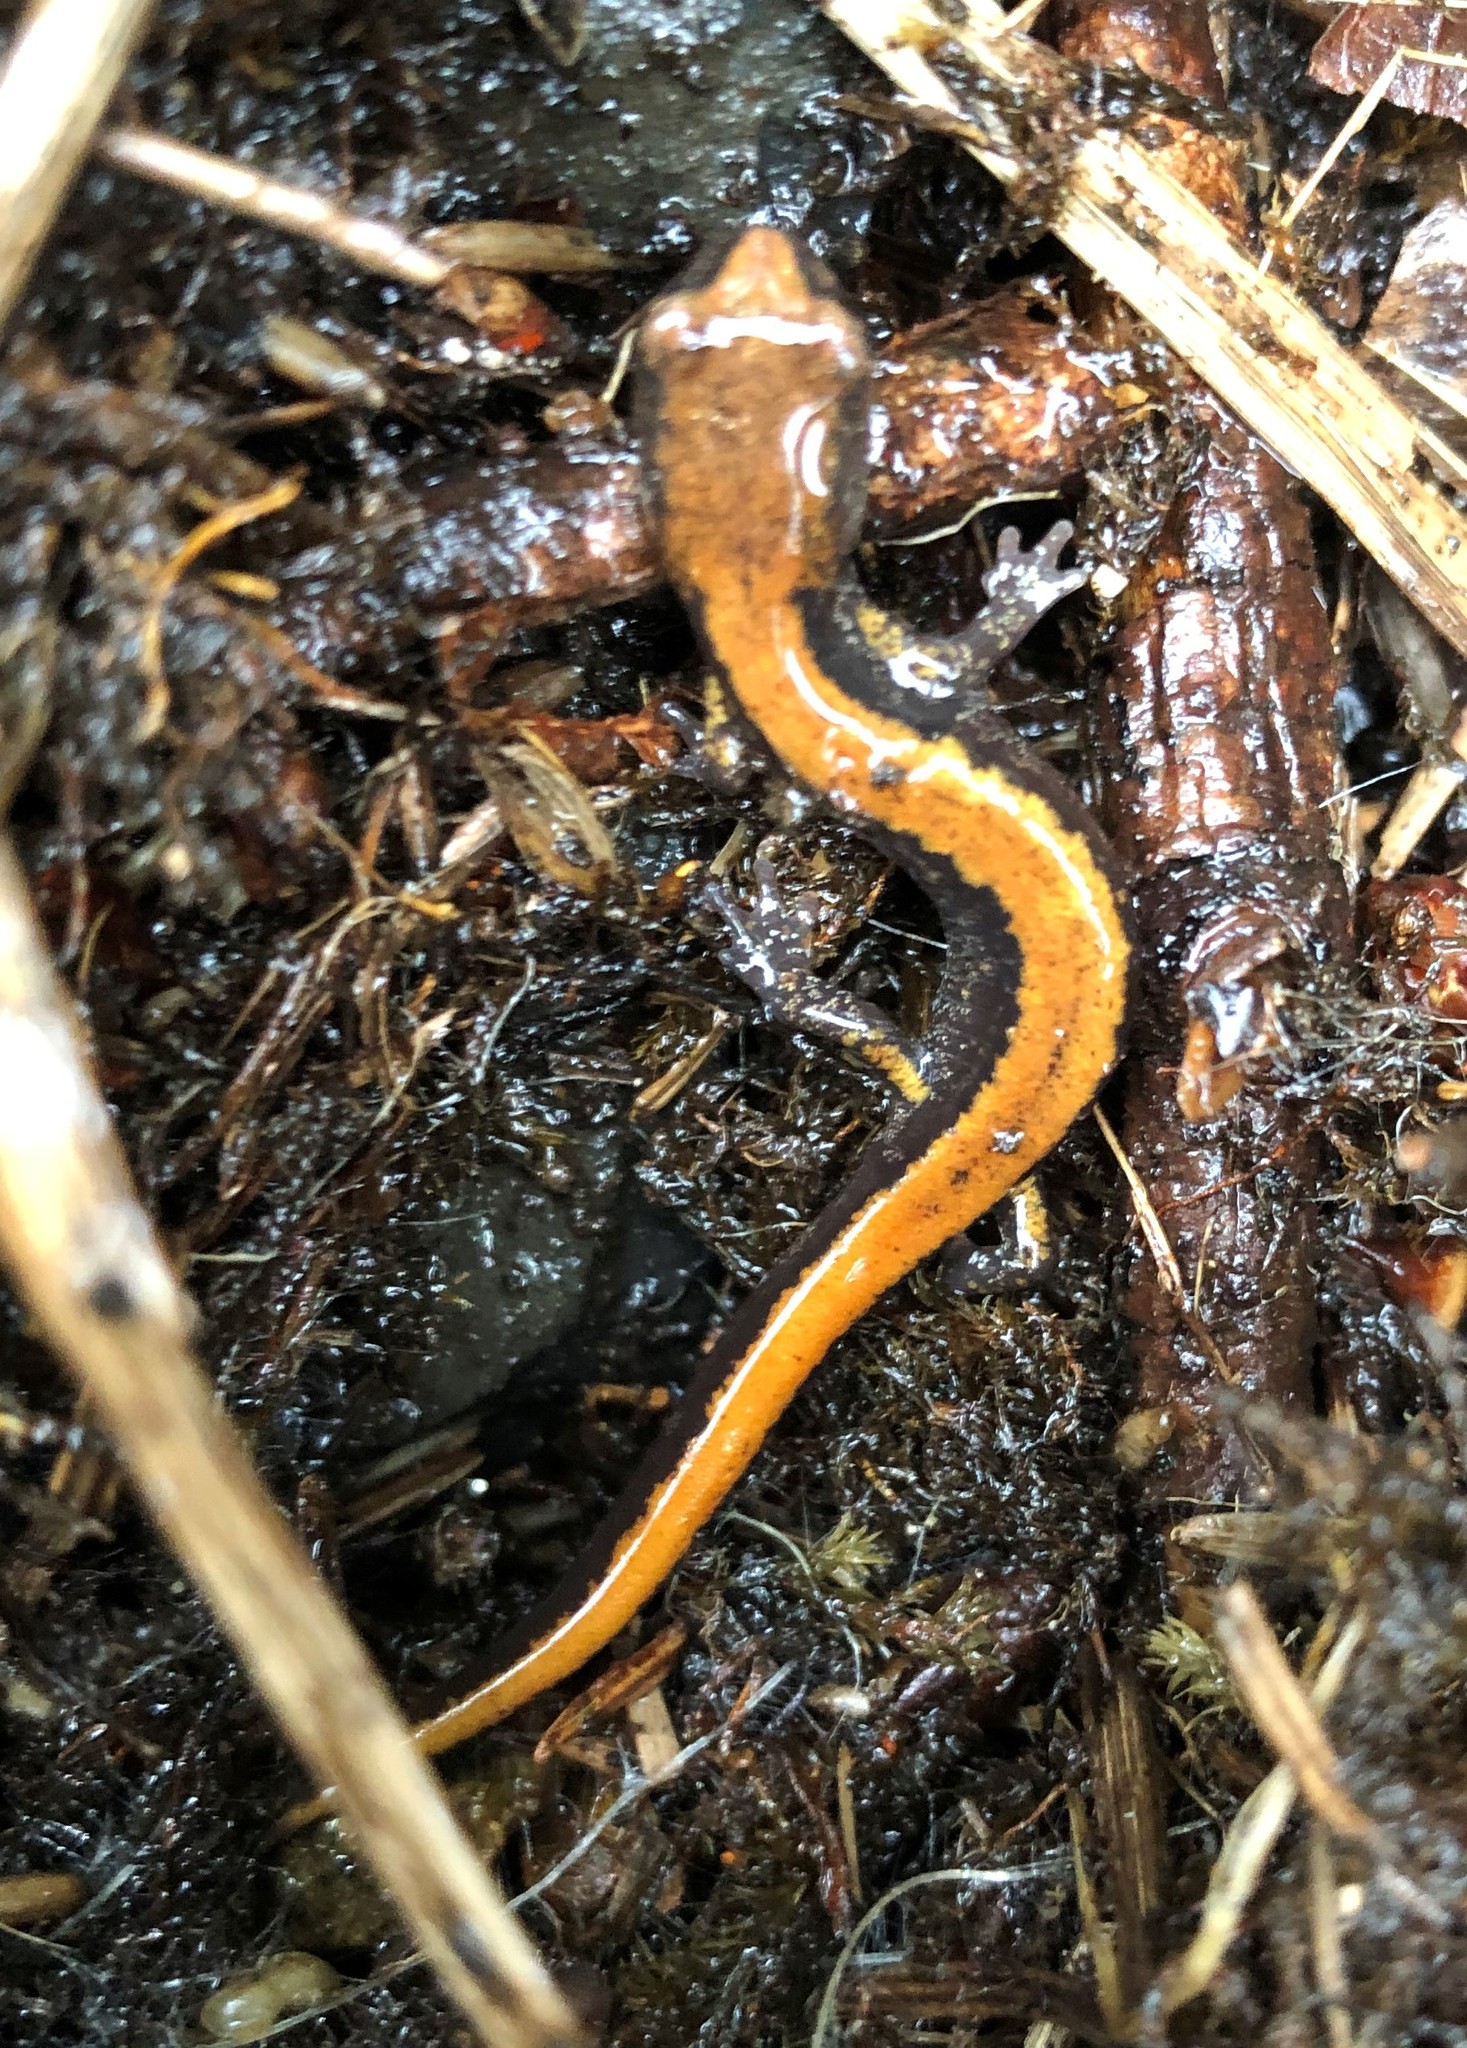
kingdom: Animalia
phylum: Chordata
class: Amphibia
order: Caudata
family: Plethodontidae
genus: Plethodon
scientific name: Plethodon larselli
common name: Larch mountain salamander
